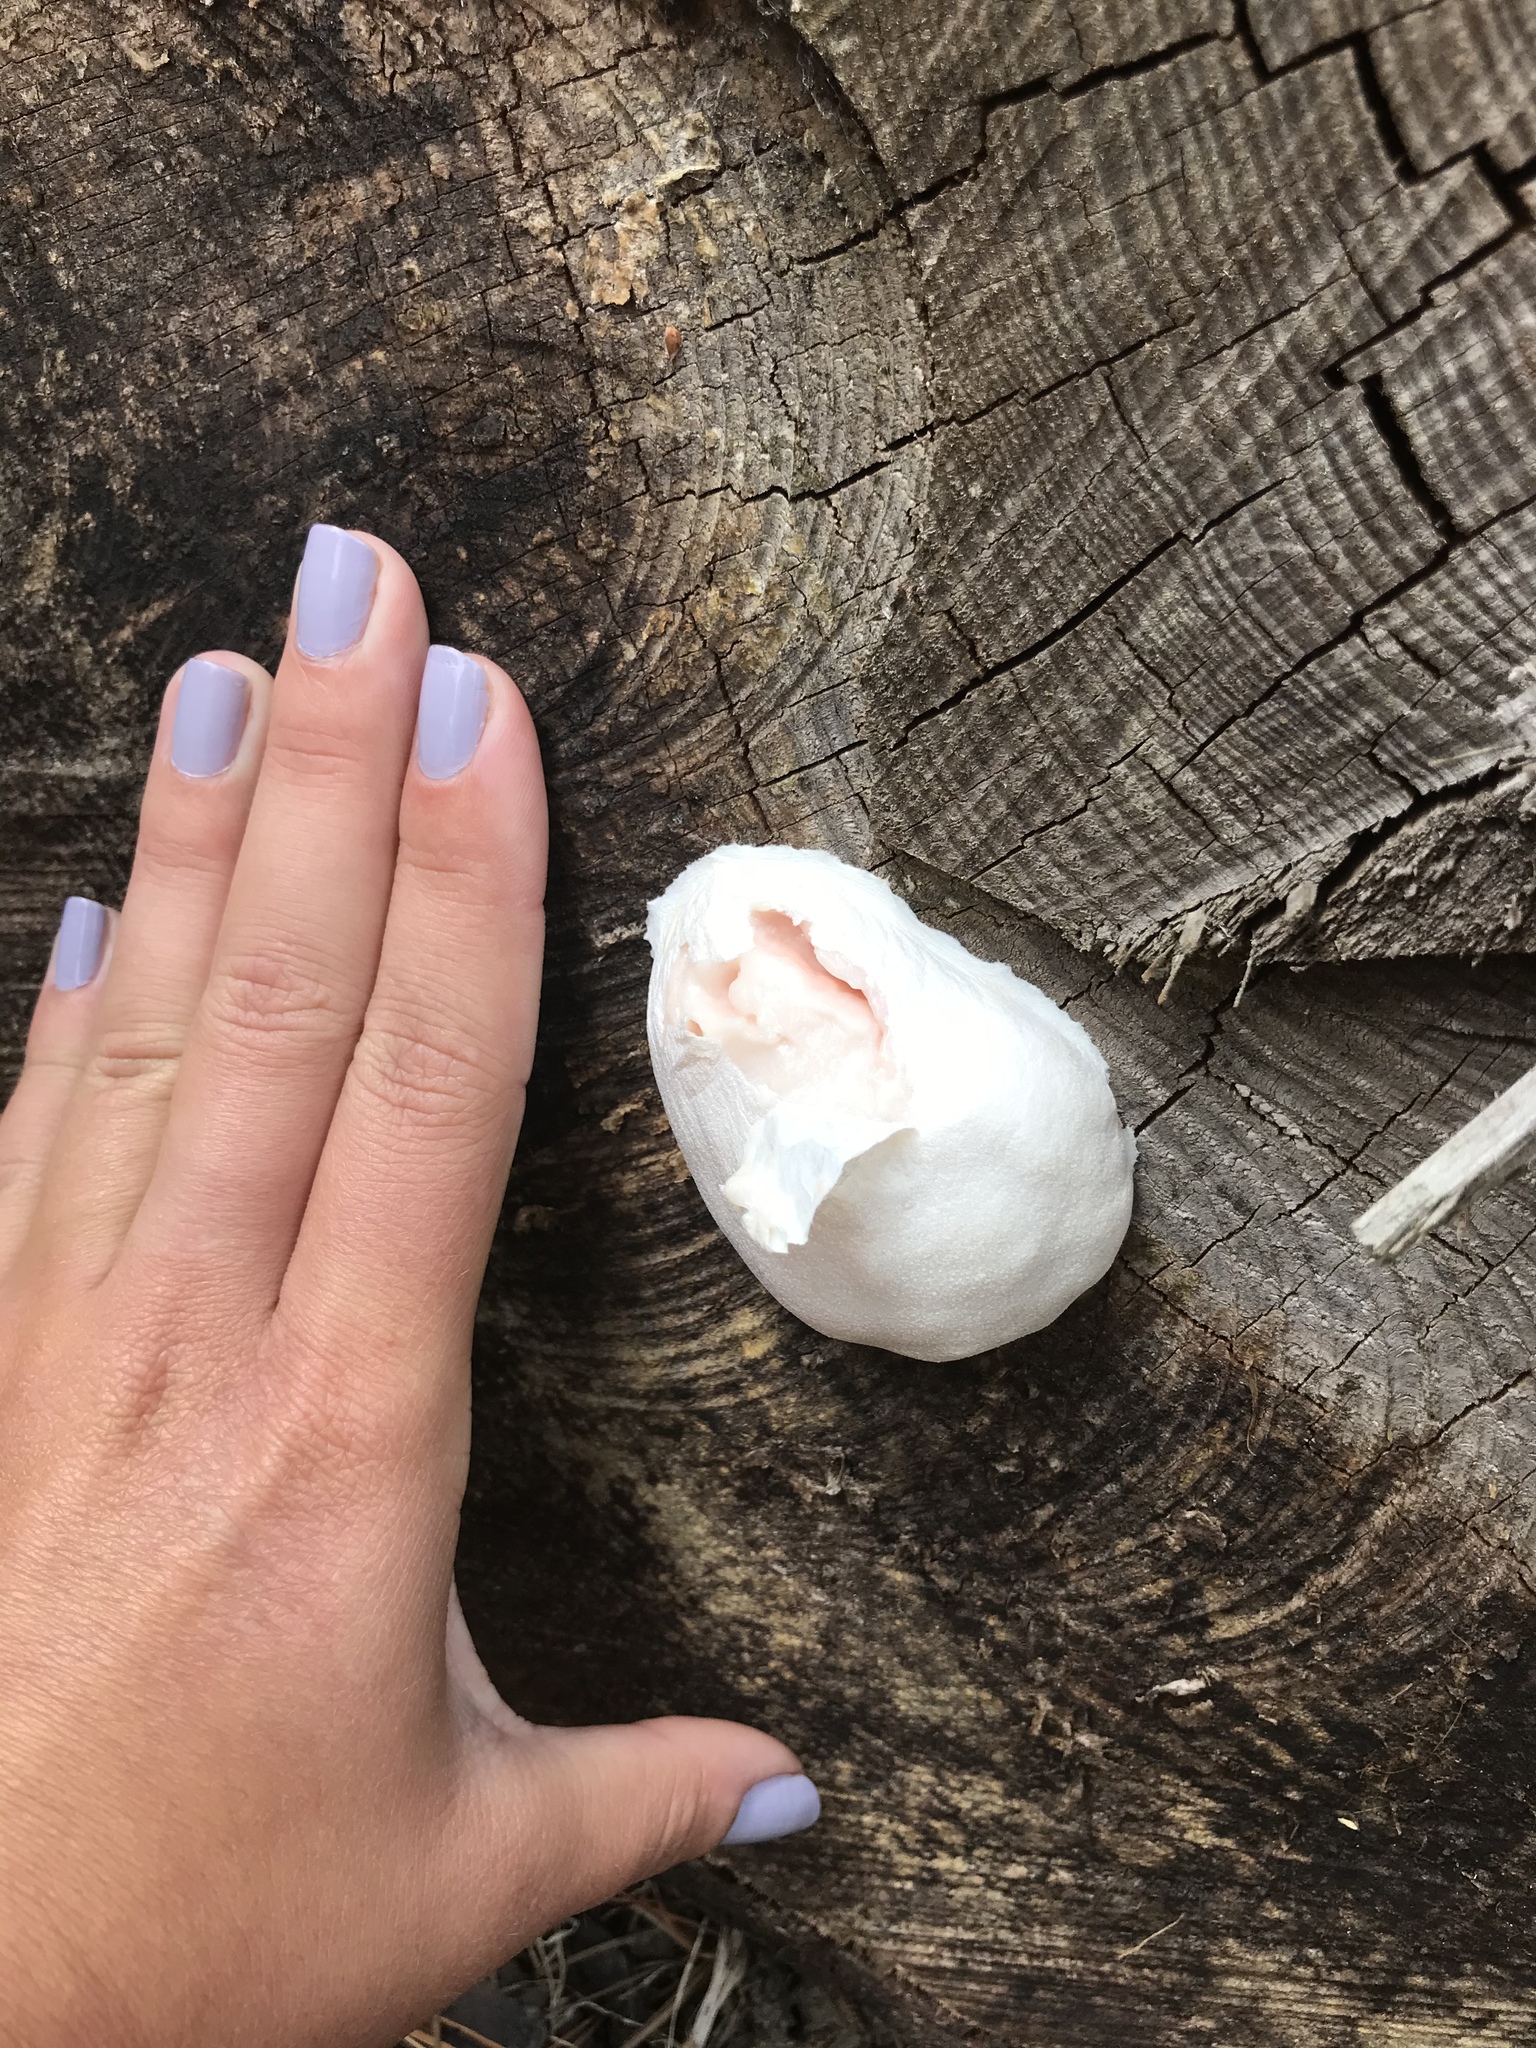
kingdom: Protozoa
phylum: Mycetozoa
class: Myxomycetes
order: Cribrariales
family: Tubiferaceae
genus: Reticularia
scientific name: Reticularia lycoperdon
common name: False puffball
